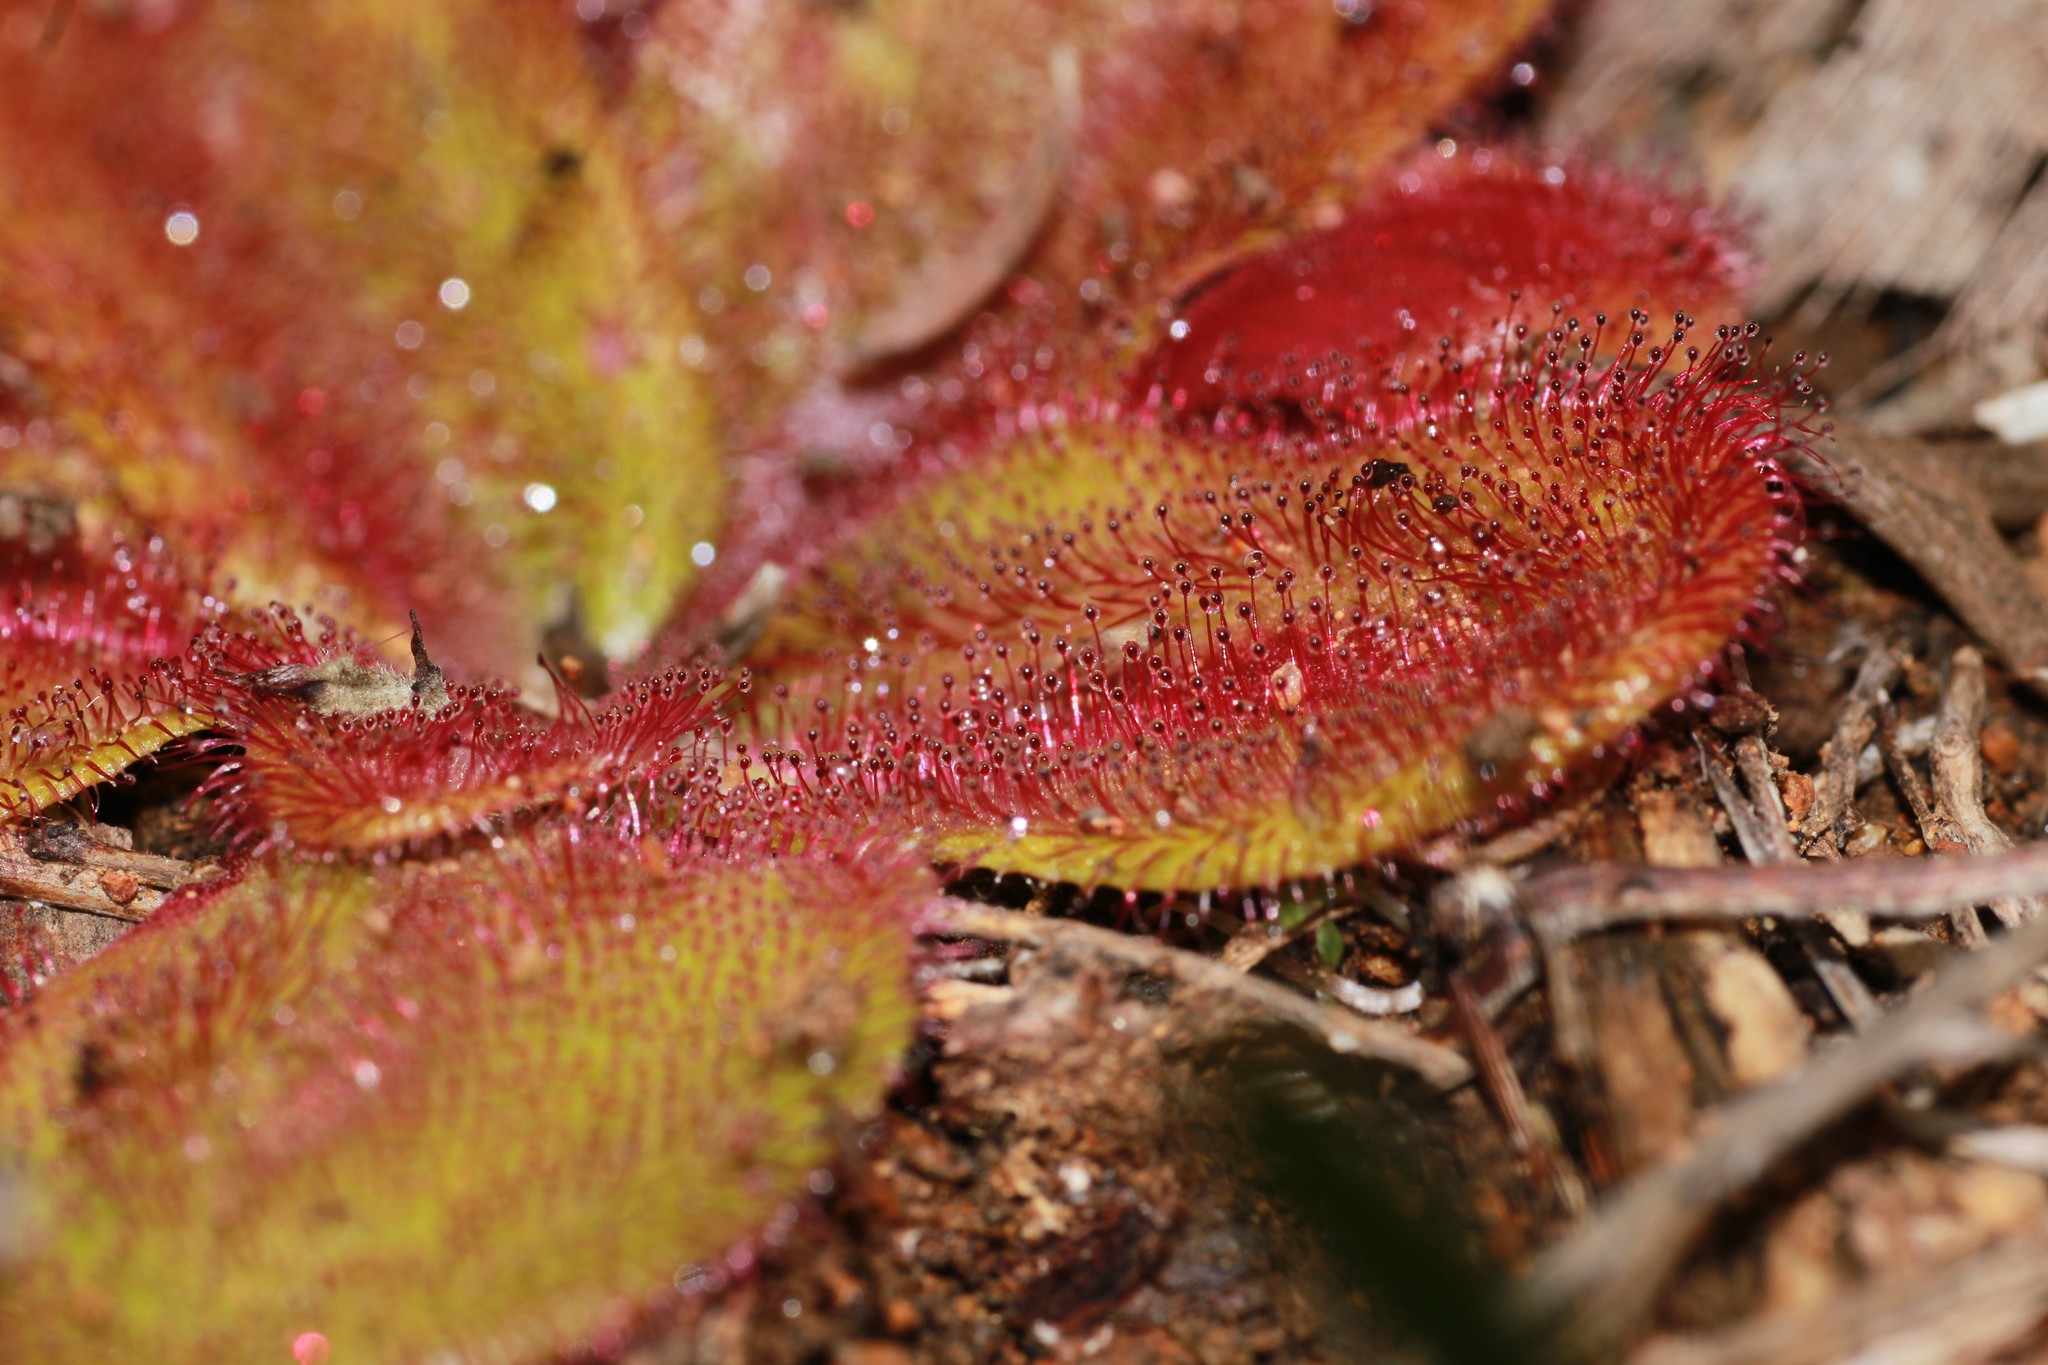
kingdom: Plantae
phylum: Tracheophyta
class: Magnoliopsida
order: Caryophyllales
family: Droseraceae
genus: Drosera
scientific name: Drosera erythrorhiza
